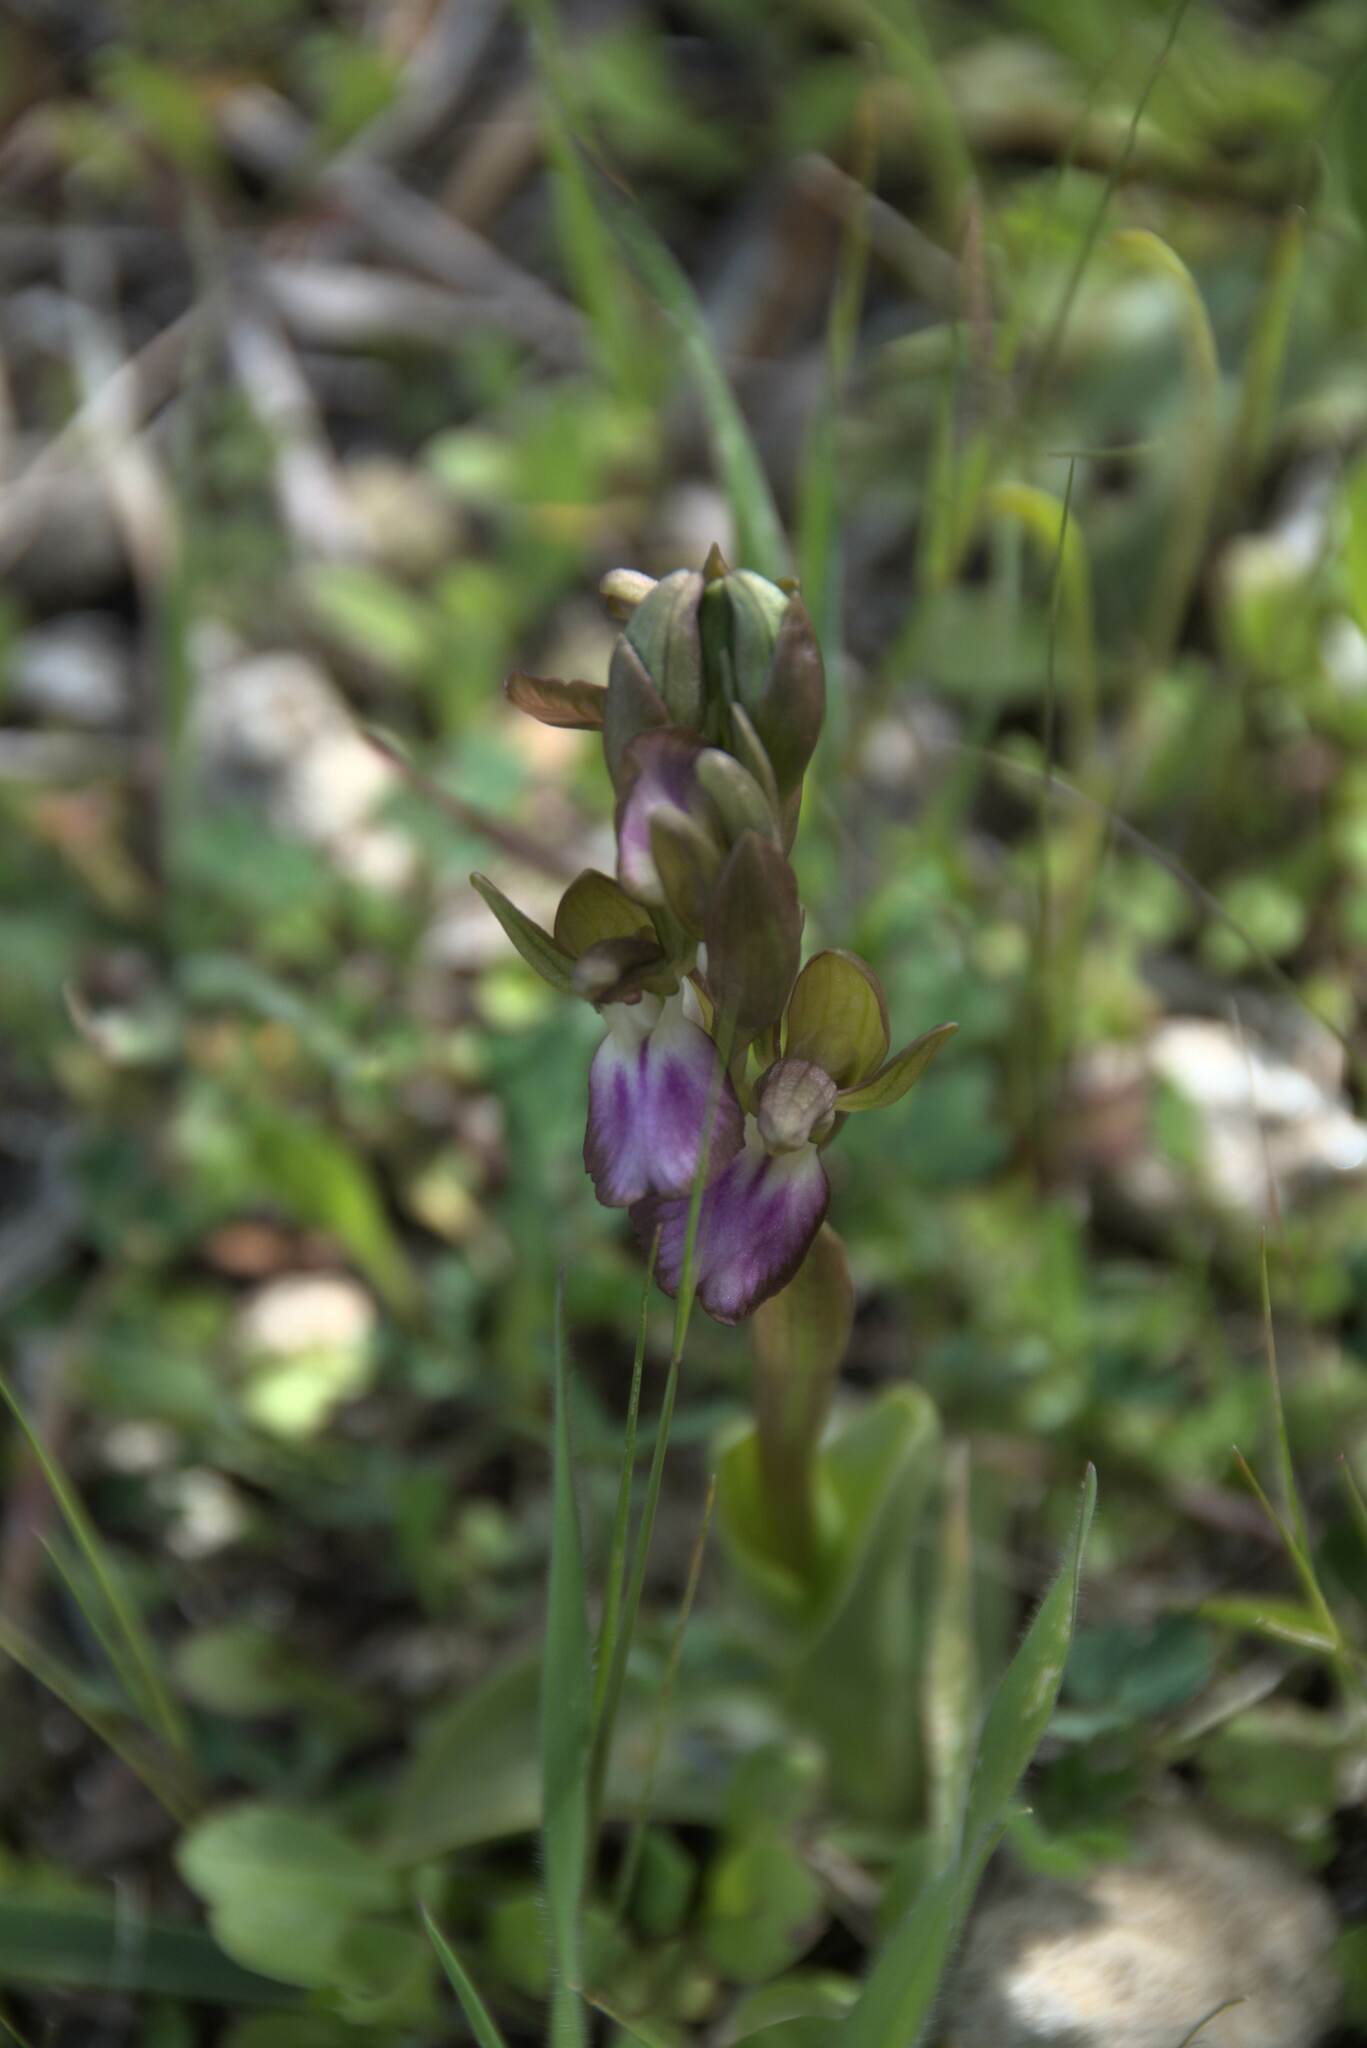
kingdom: Plantae
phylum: Tracheophyta
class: Liliopsida
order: Asparagales
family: Orchidaceae
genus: Anacamptis
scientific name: Anacamptis collina
